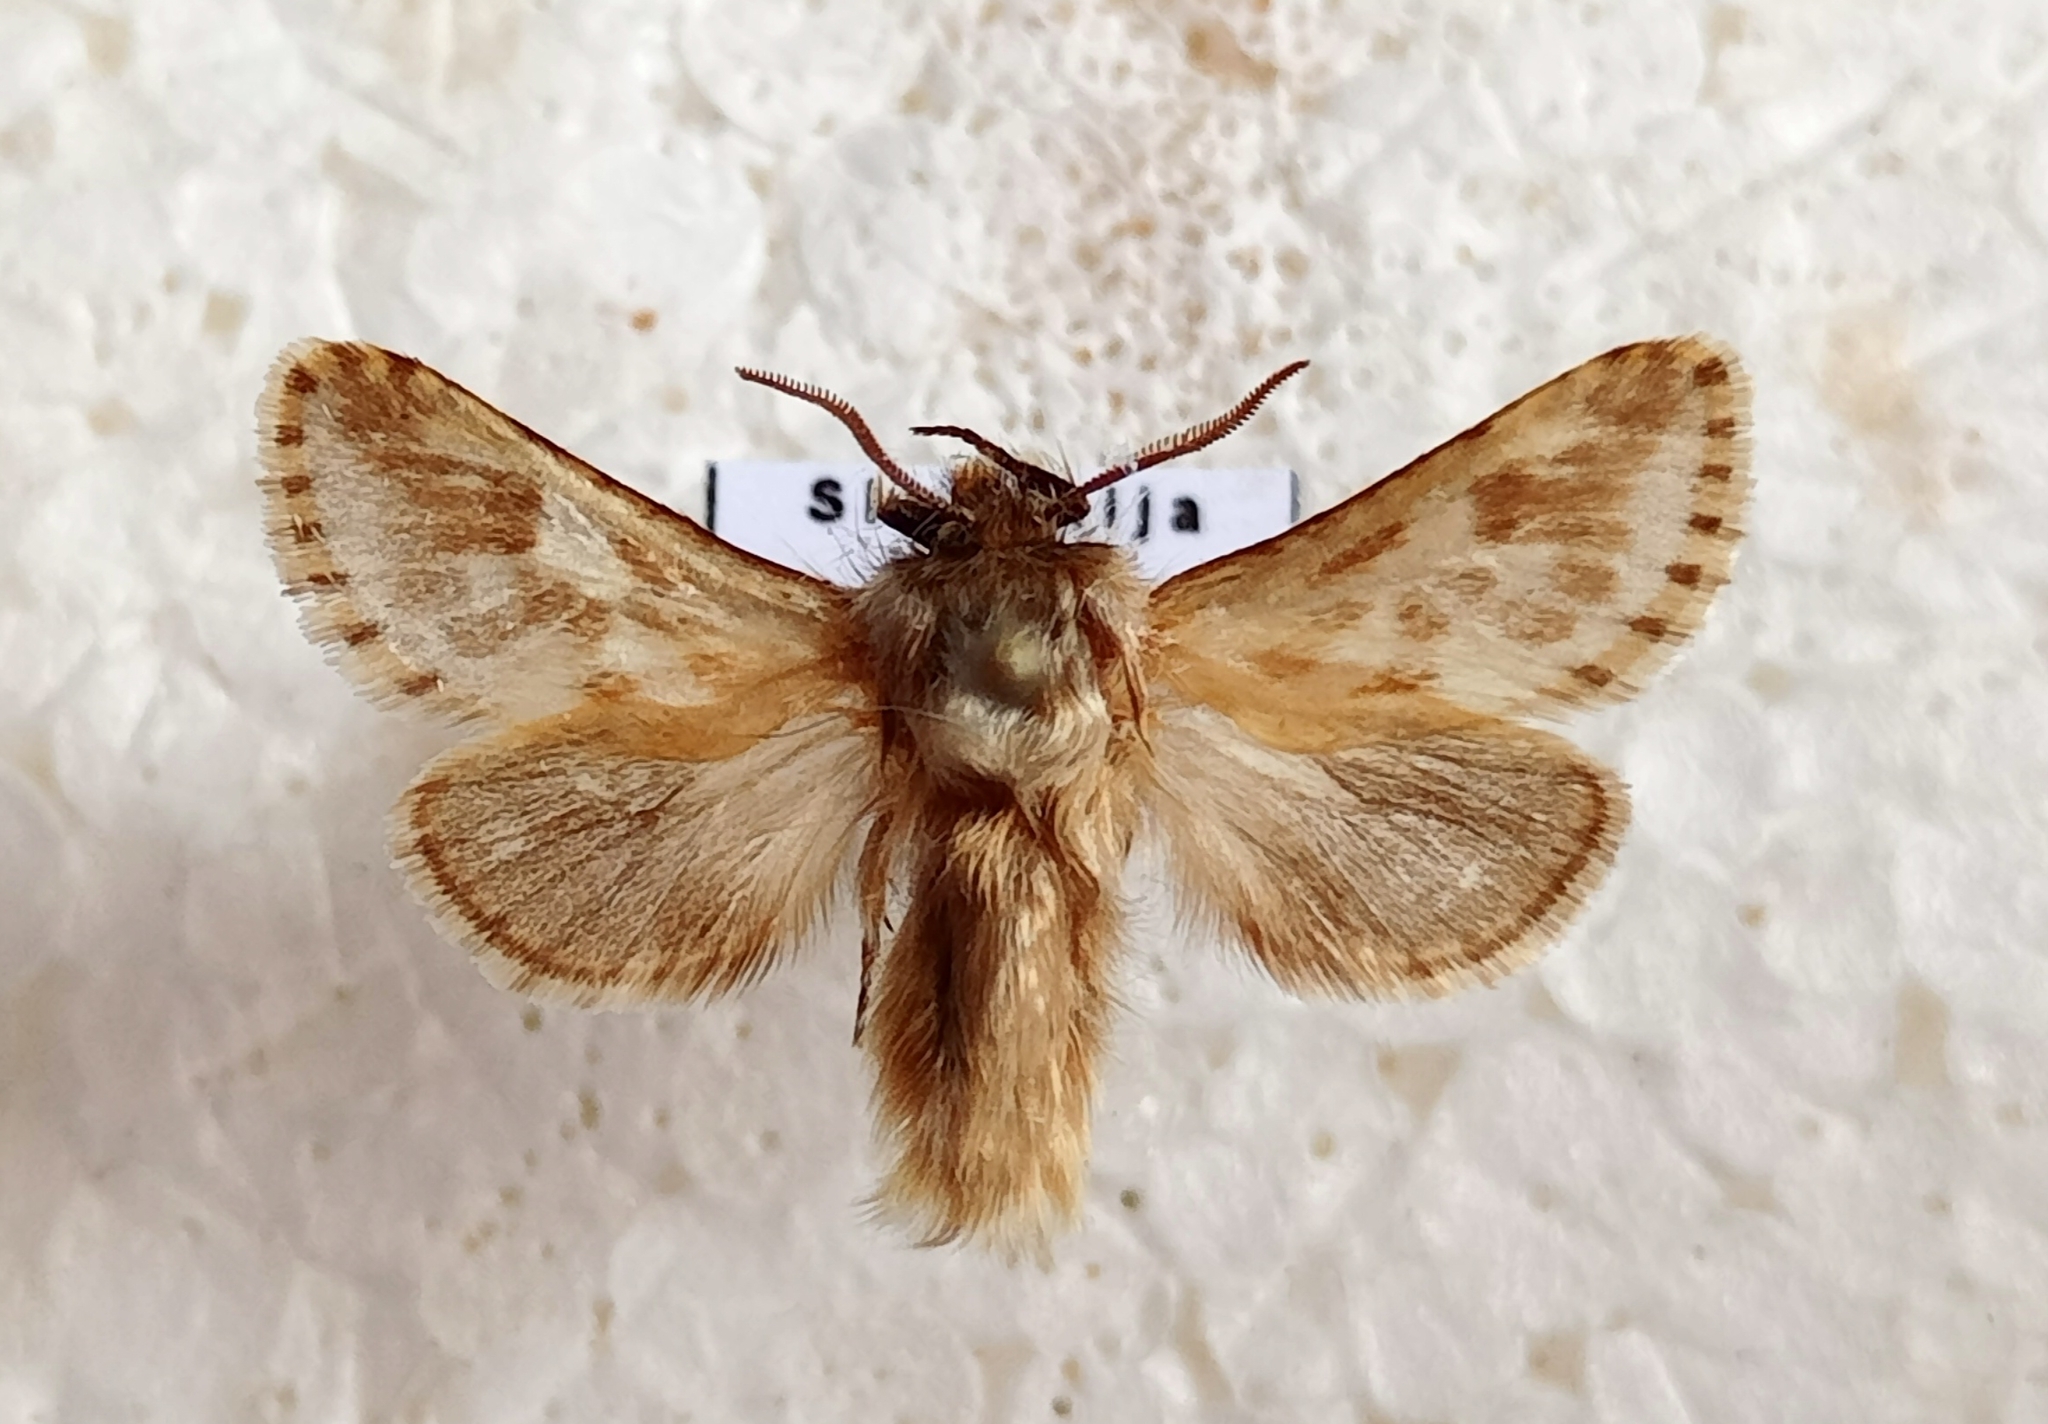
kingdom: Animalia
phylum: Arthropoda
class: Insecta
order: Lepidoptera
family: Cossidae
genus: Dyspessa
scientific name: Dyspessa ulula
